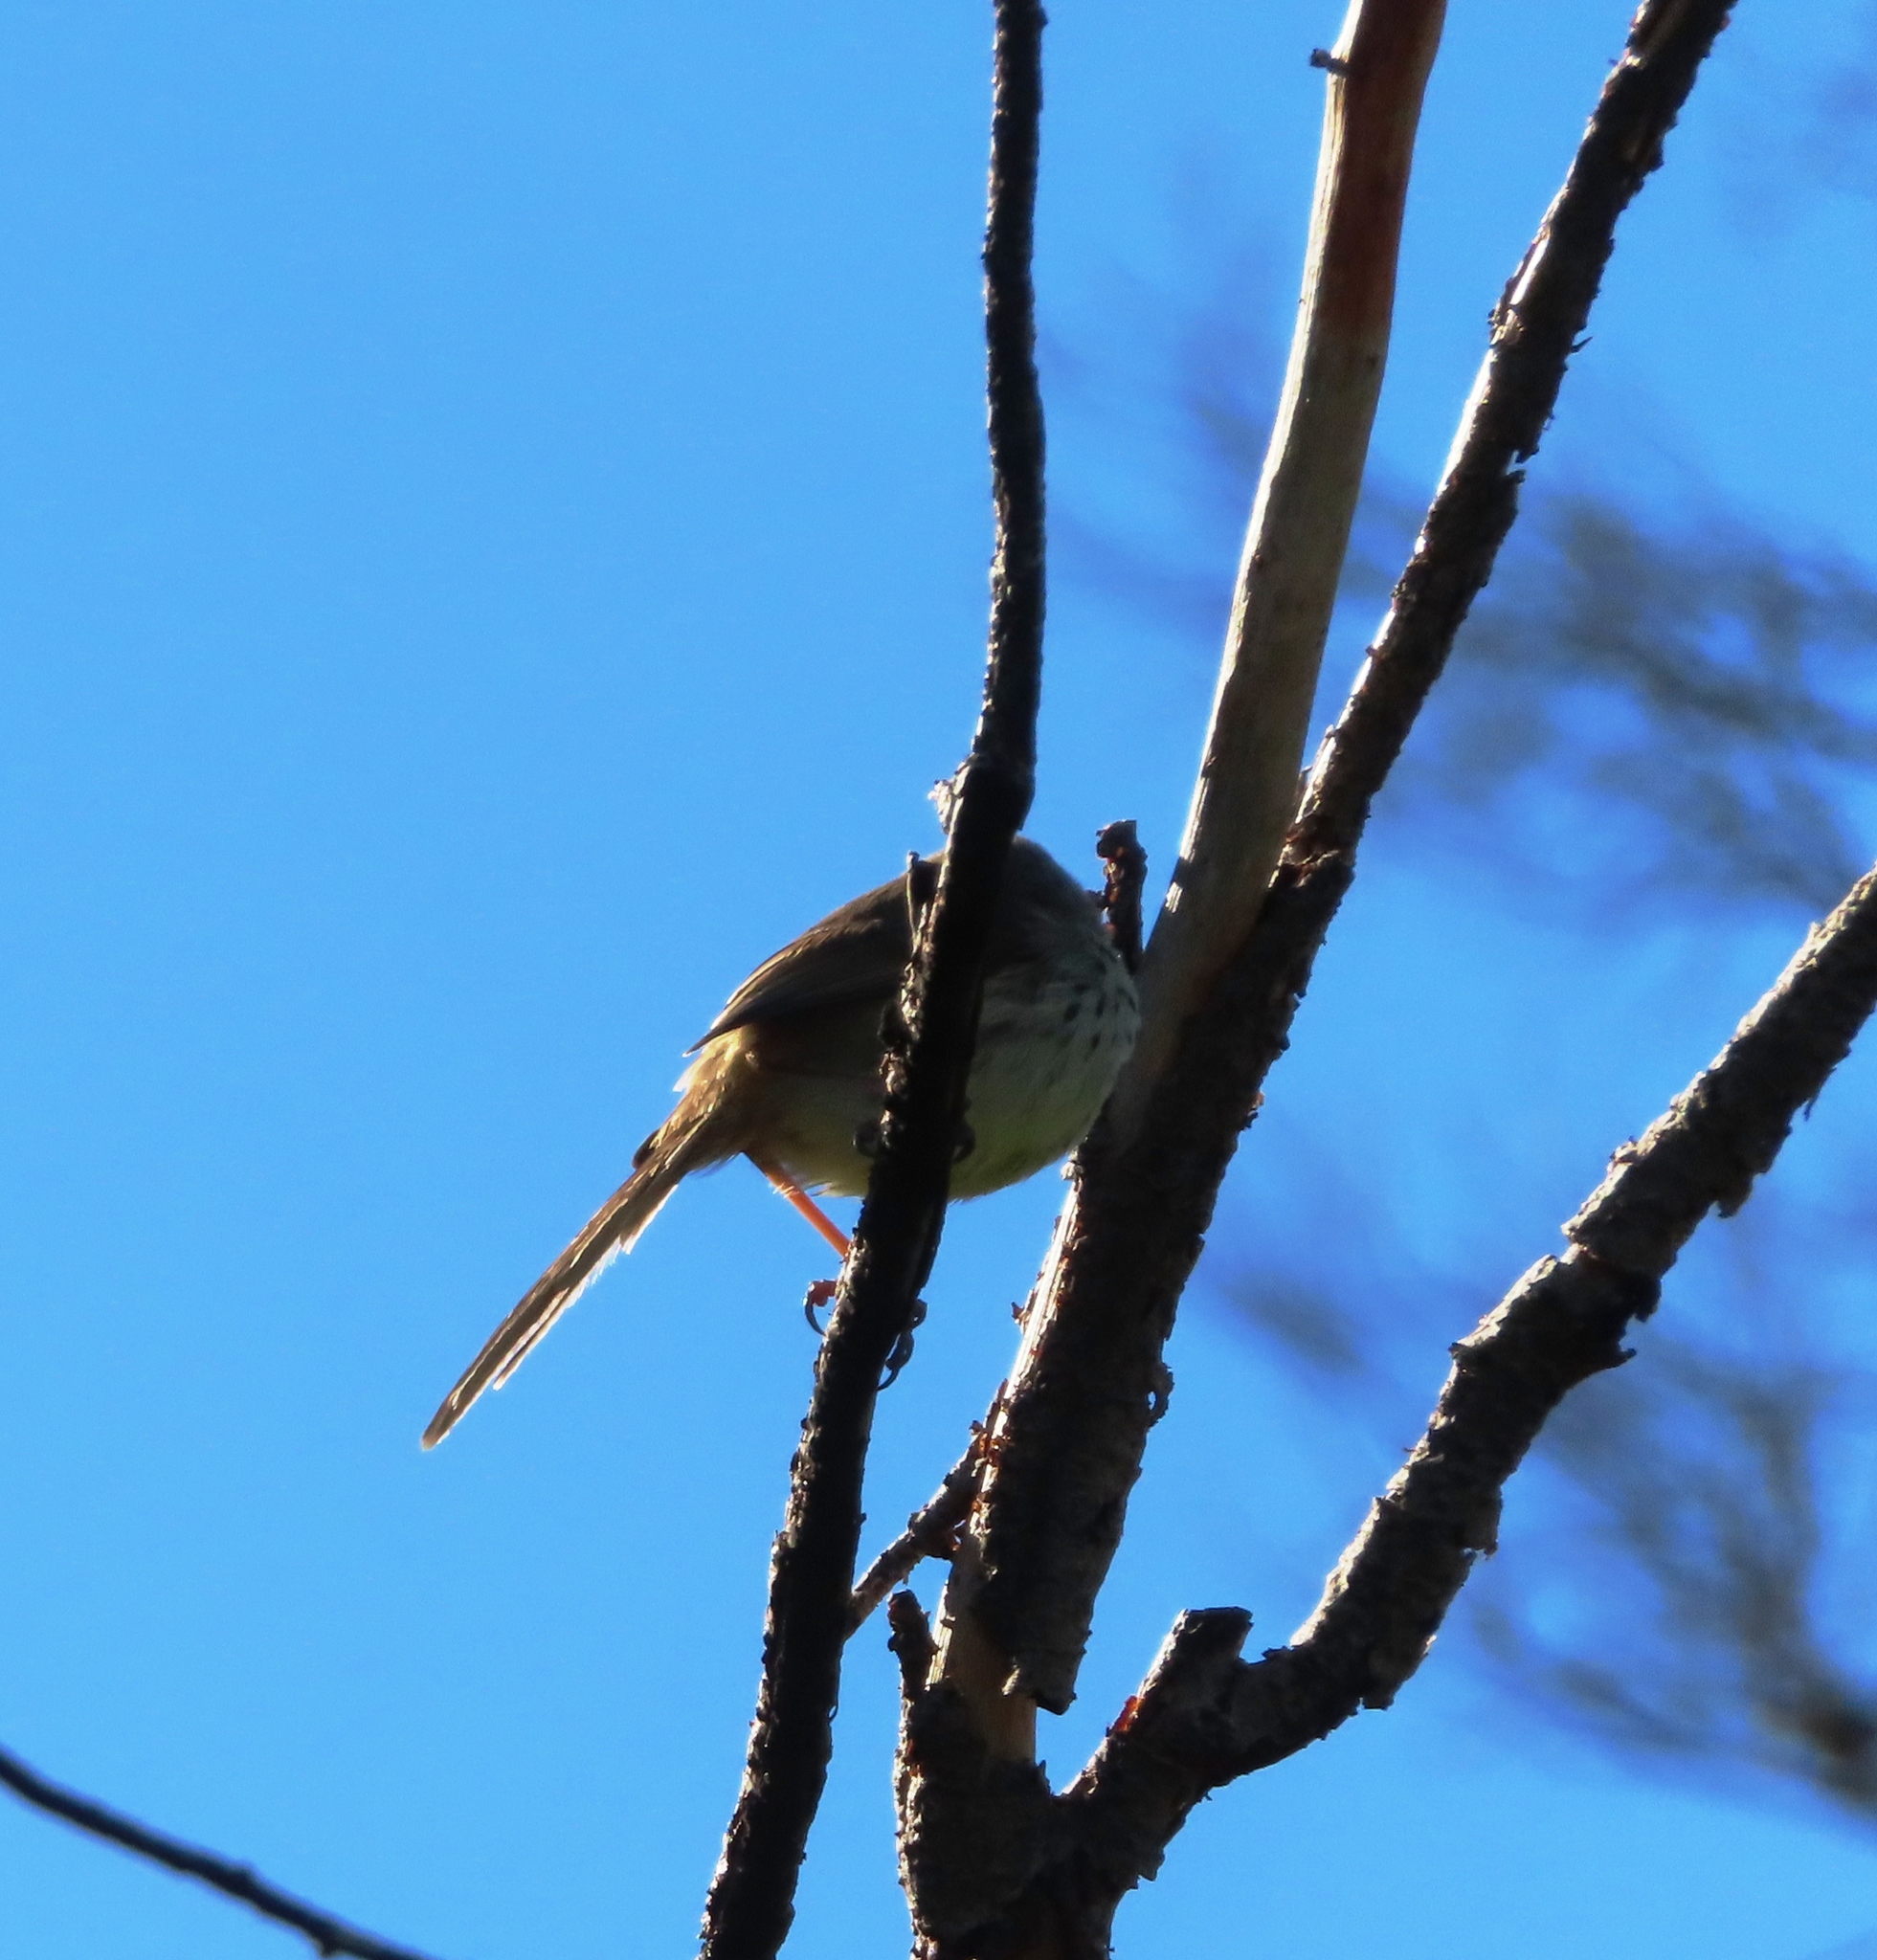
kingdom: Animalia
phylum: Chordata
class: Aves
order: Passeriformes
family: Cisticolidae
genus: Prinia
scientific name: Prinia maculosa
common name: Karoo prinia
